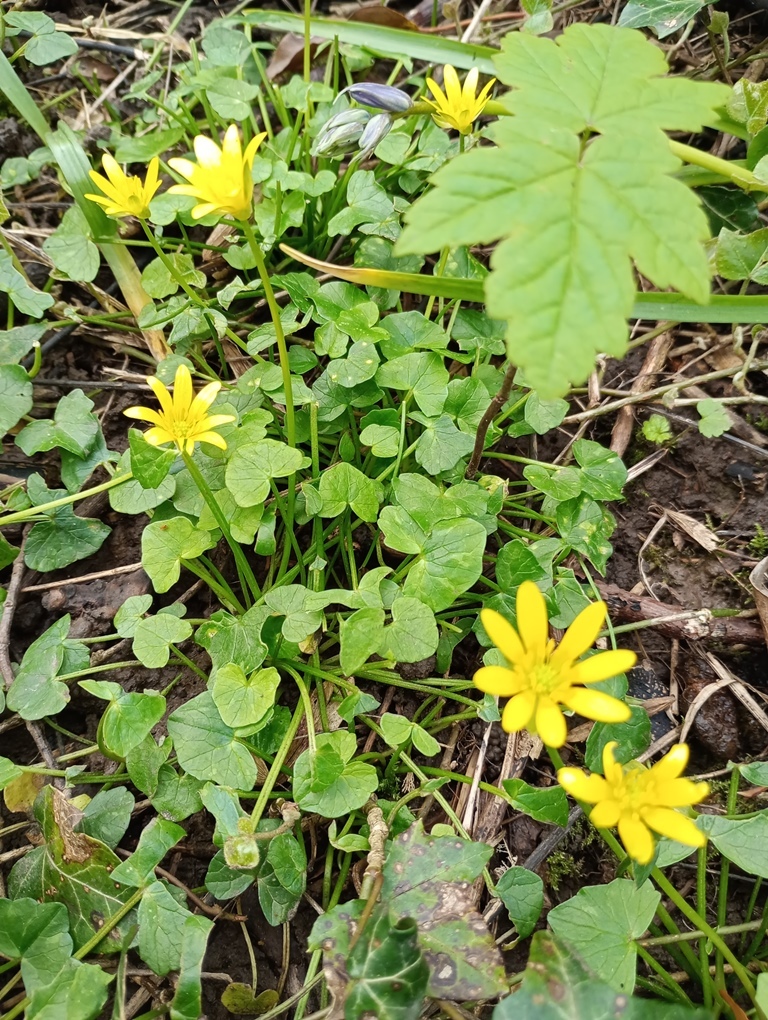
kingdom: Plantae
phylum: Tracheophyta
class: Magnoliopsida
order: Ranunculales
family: Ranunculaceae
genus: Ficaria
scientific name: Ficaria verna
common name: Lesser celandine
